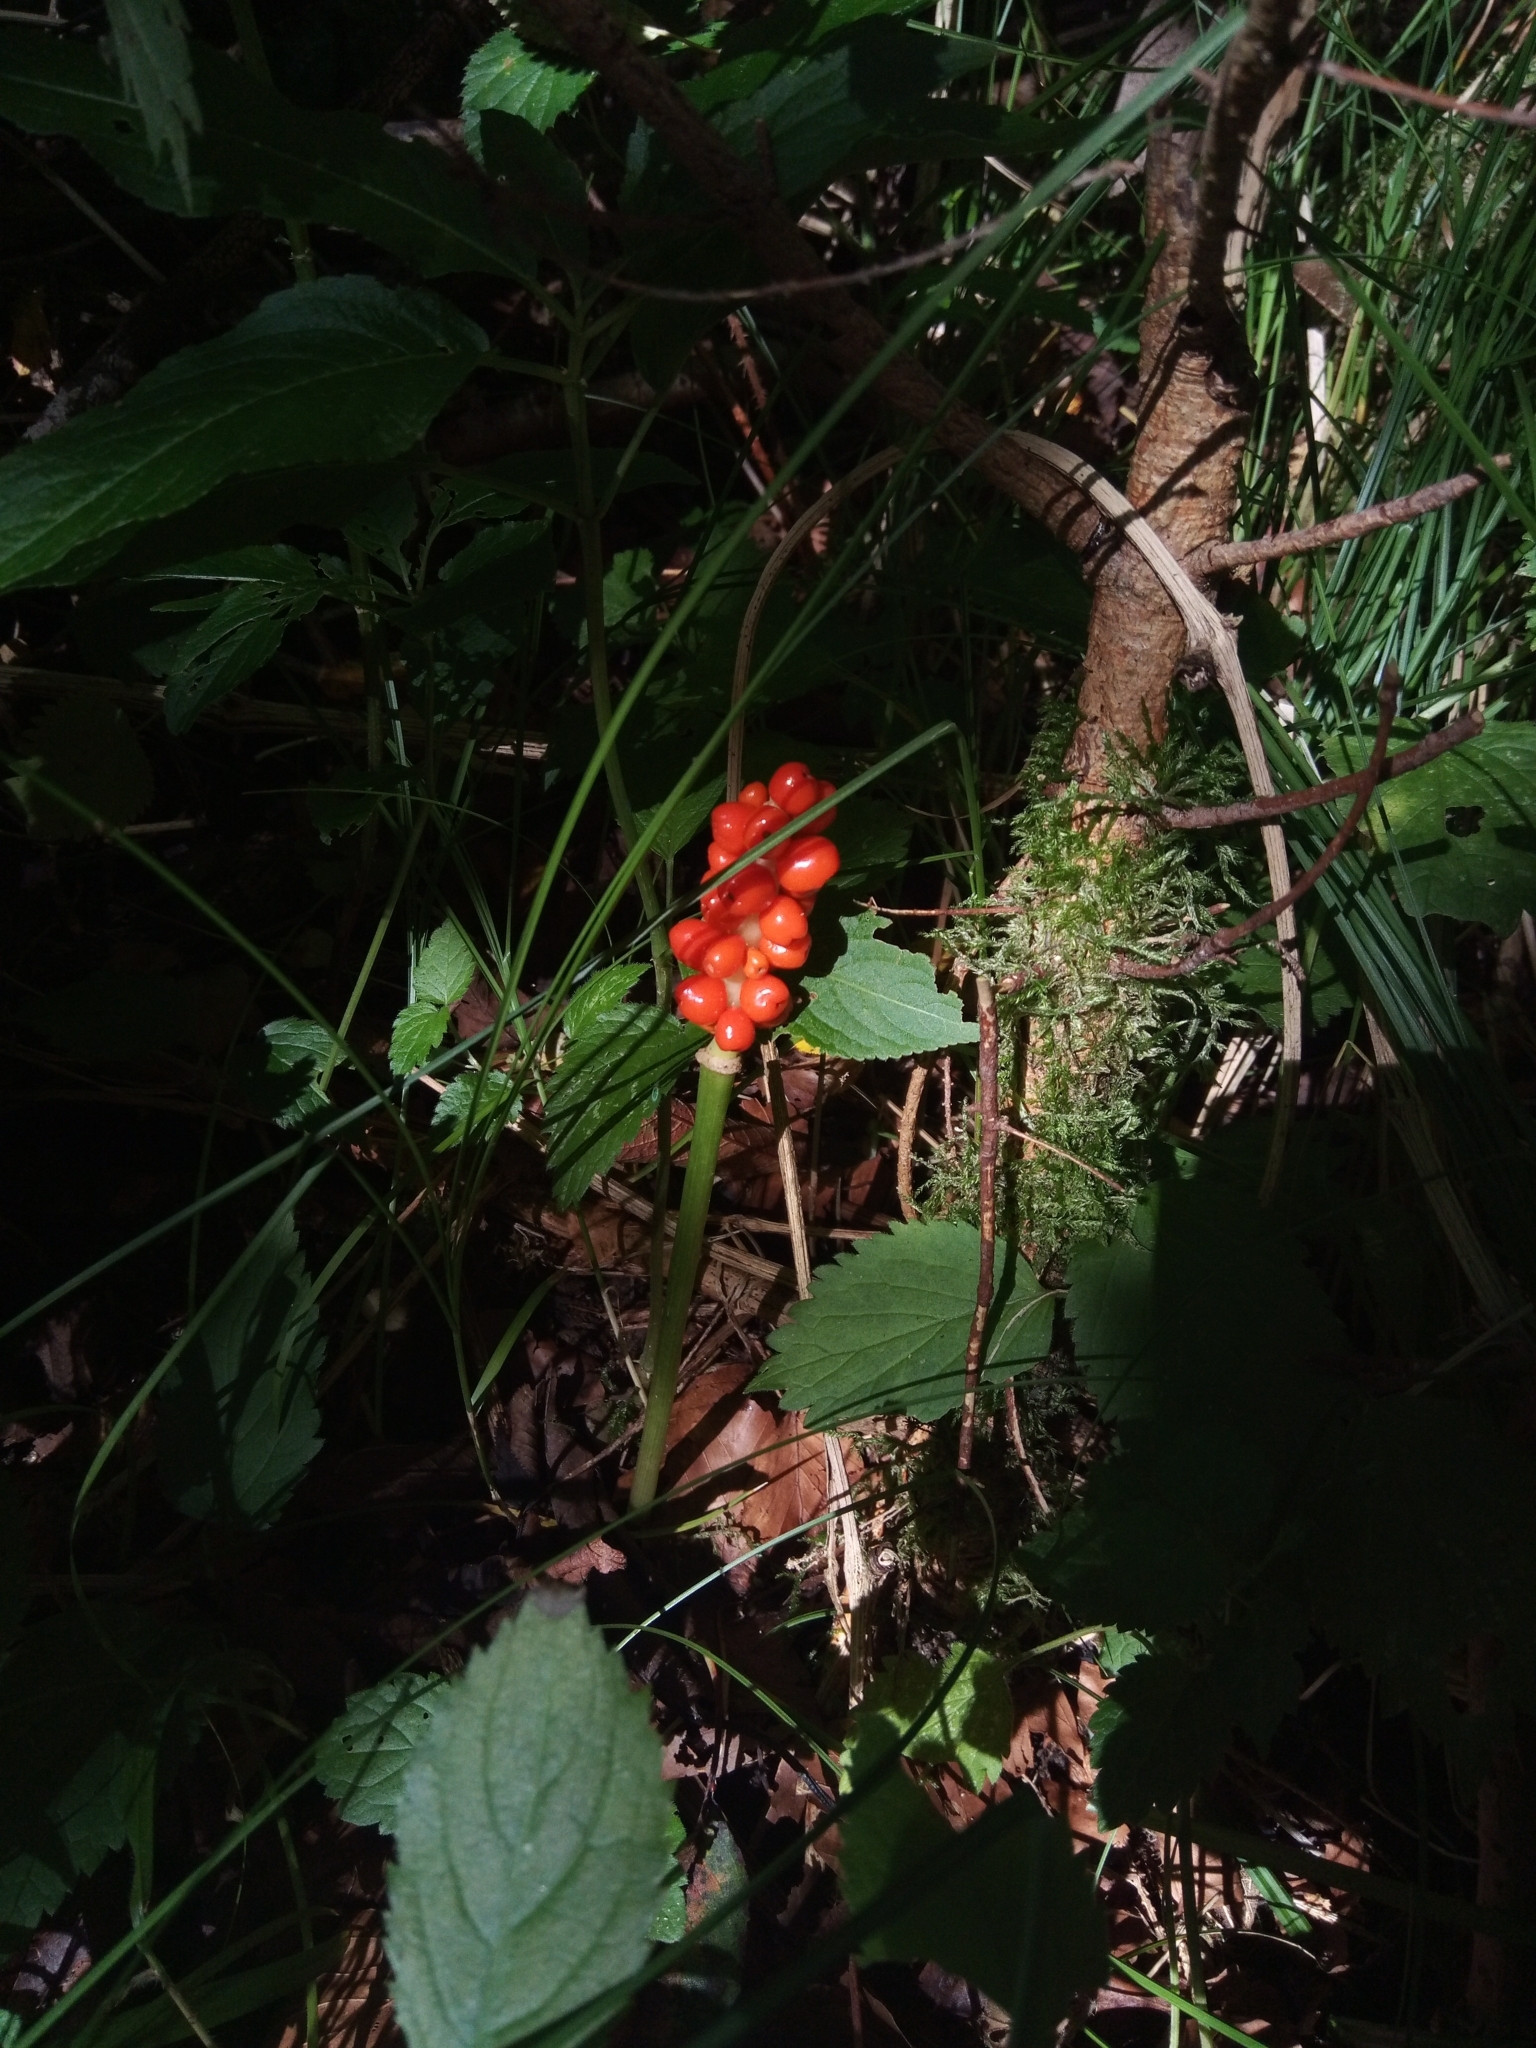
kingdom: Plantae
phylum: Tracheophyta
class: Liliopsida
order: Alismatales
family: Araceae
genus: Arum
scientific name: Arum maculatum
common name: Lords-and-ladies
